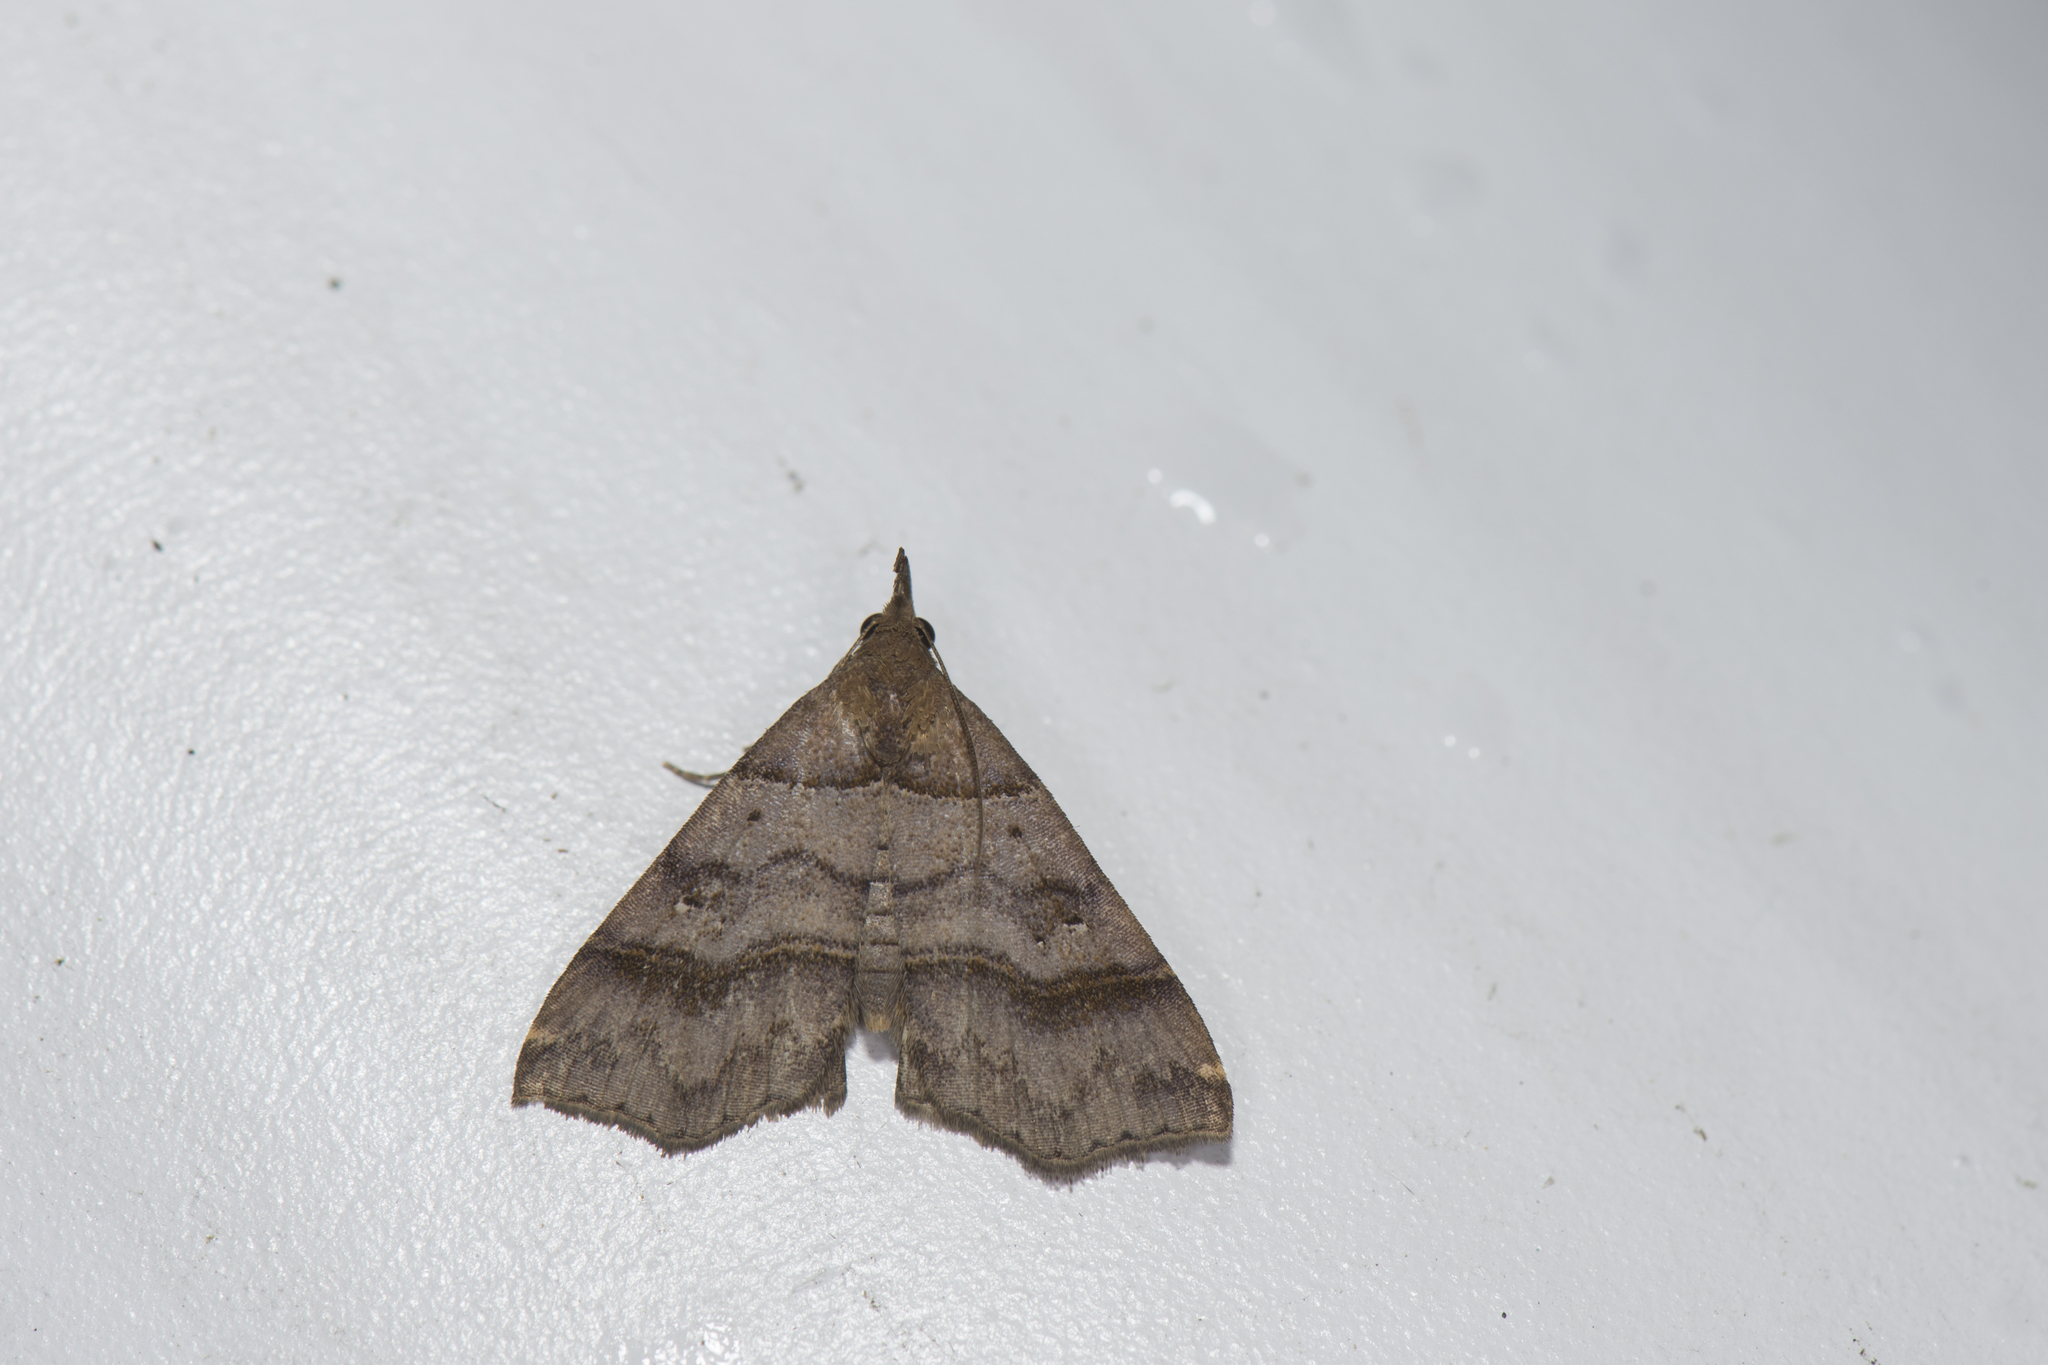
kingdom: Animalia
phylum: Arthropoda
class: Insecta
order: Lepidoptera
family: Erebidae
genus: Bertula
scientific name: Bertula kosemponica
